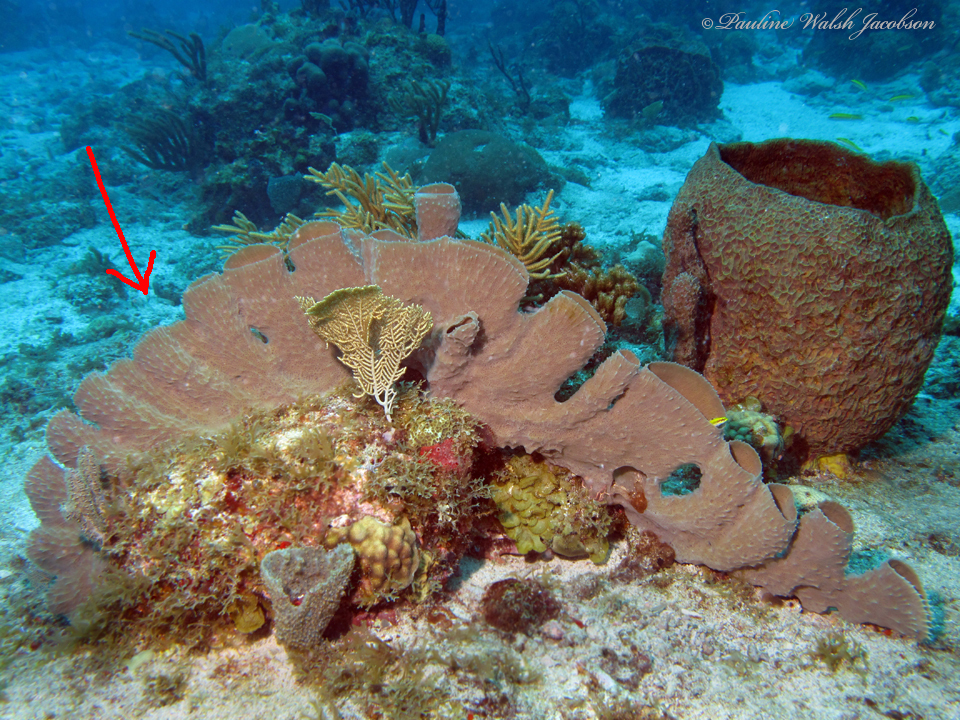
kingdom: Animalia
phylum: Porifera
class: Demospongiae
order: Haplosclerida
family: Callyspongiidae
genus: Callyspongia
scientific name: Callyspongia aculeata
